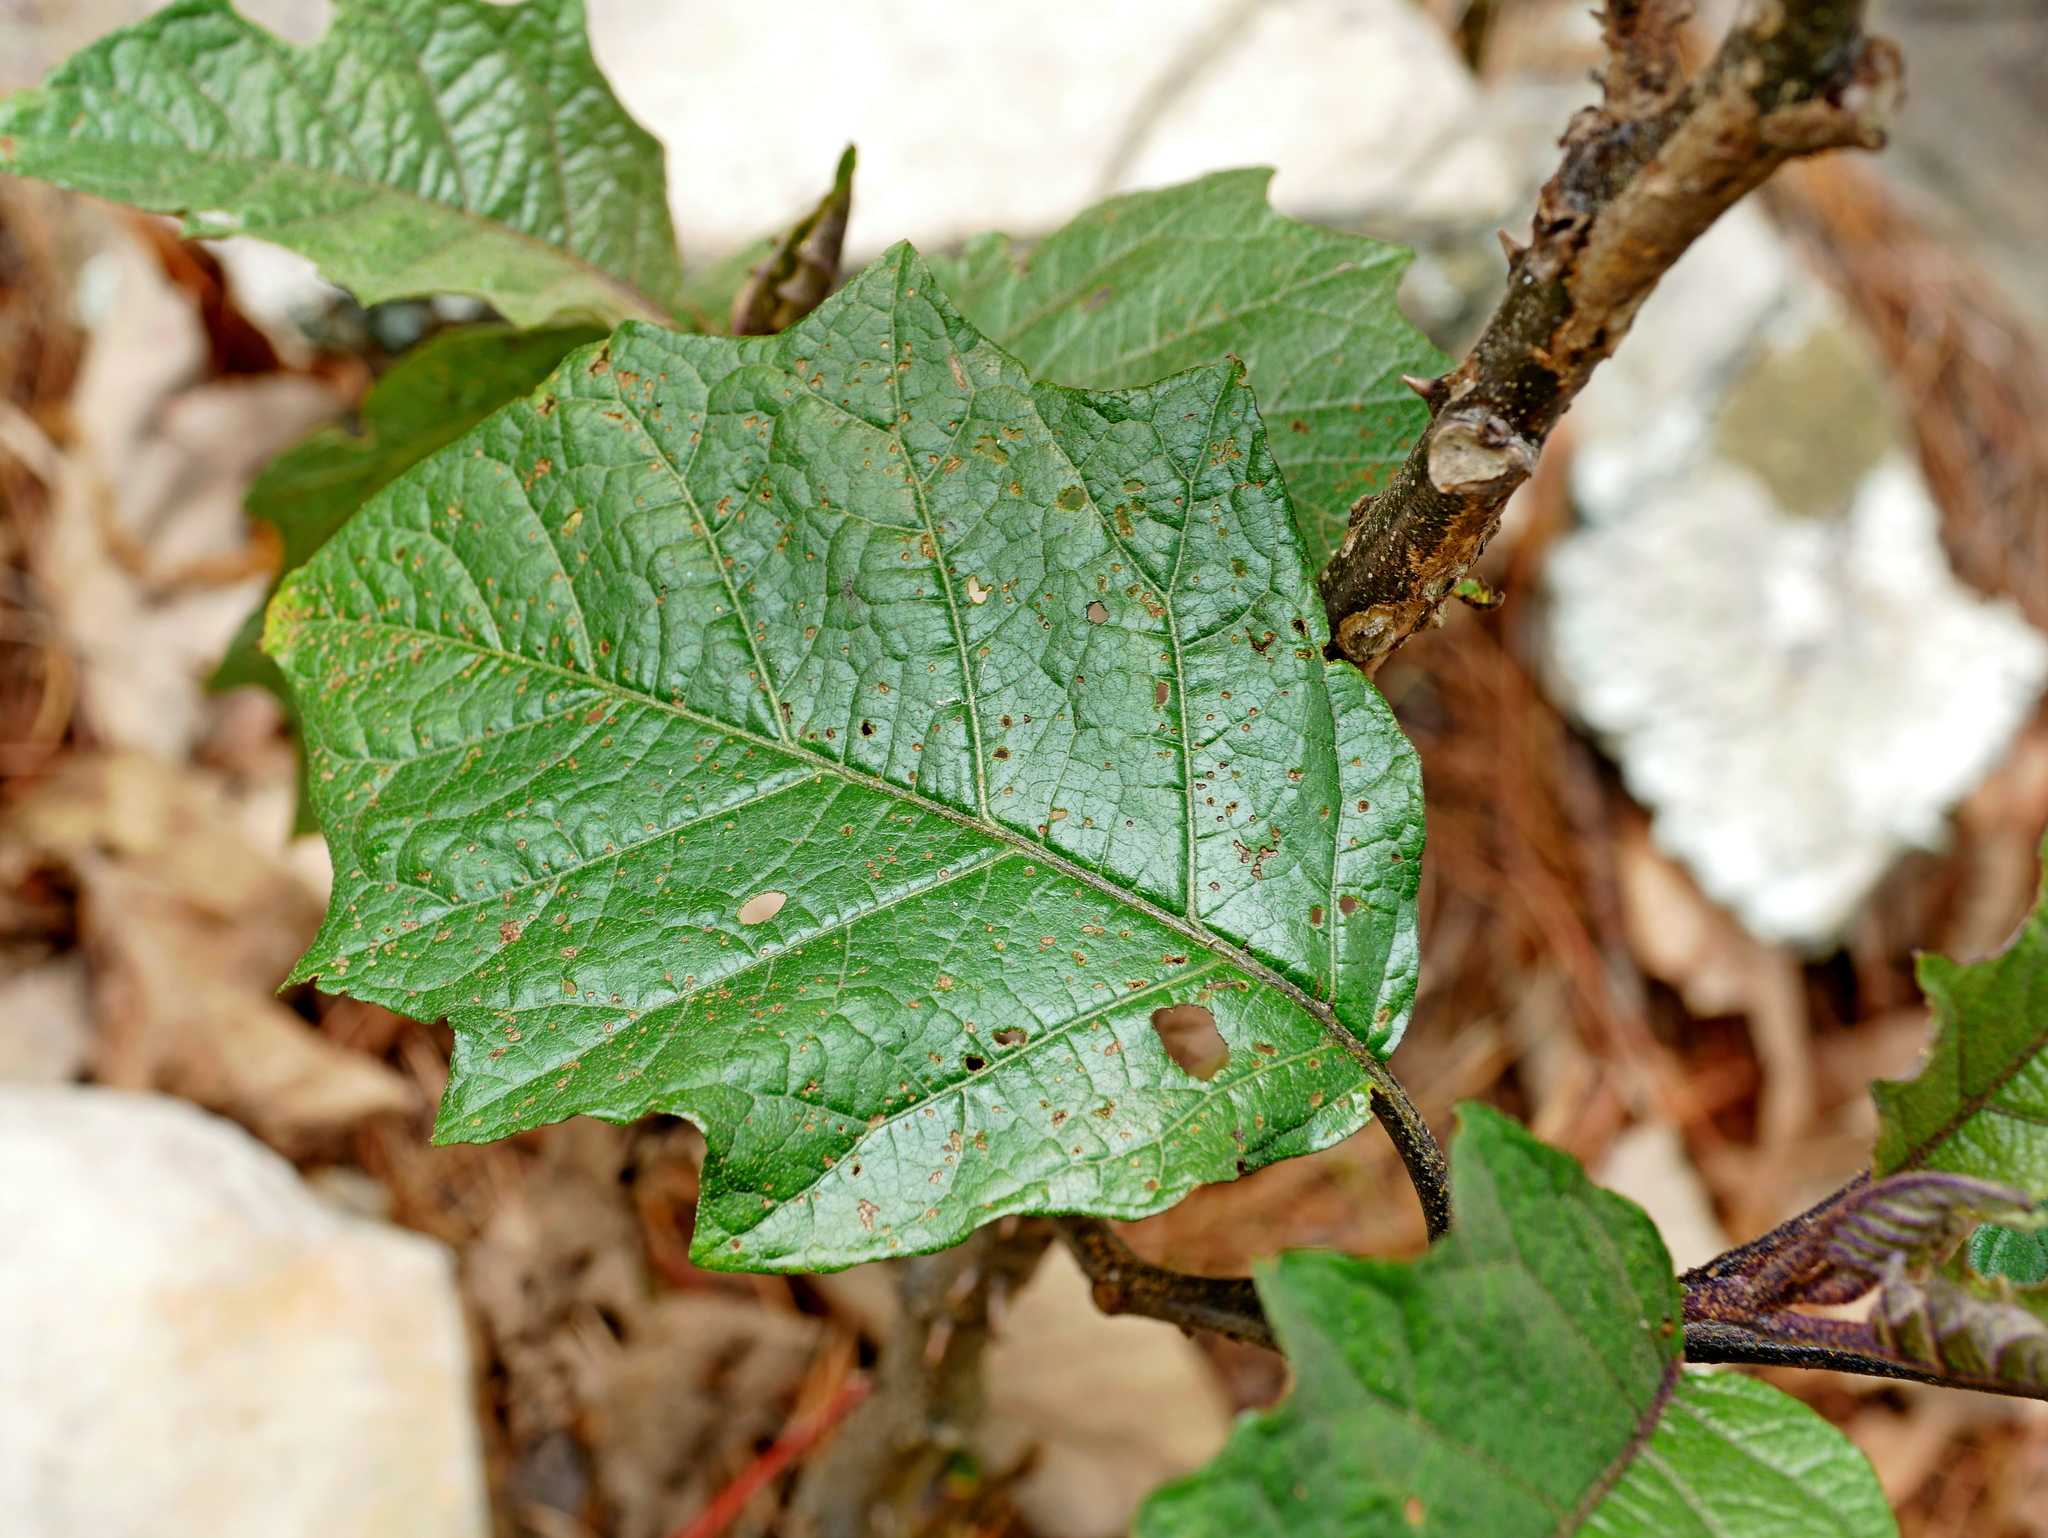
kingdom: Plantae
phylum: Tracheophyta
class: Magnoliopsida
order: Solanales
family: Solanaceae
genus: Solanum
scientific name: Solanum peikuoense
